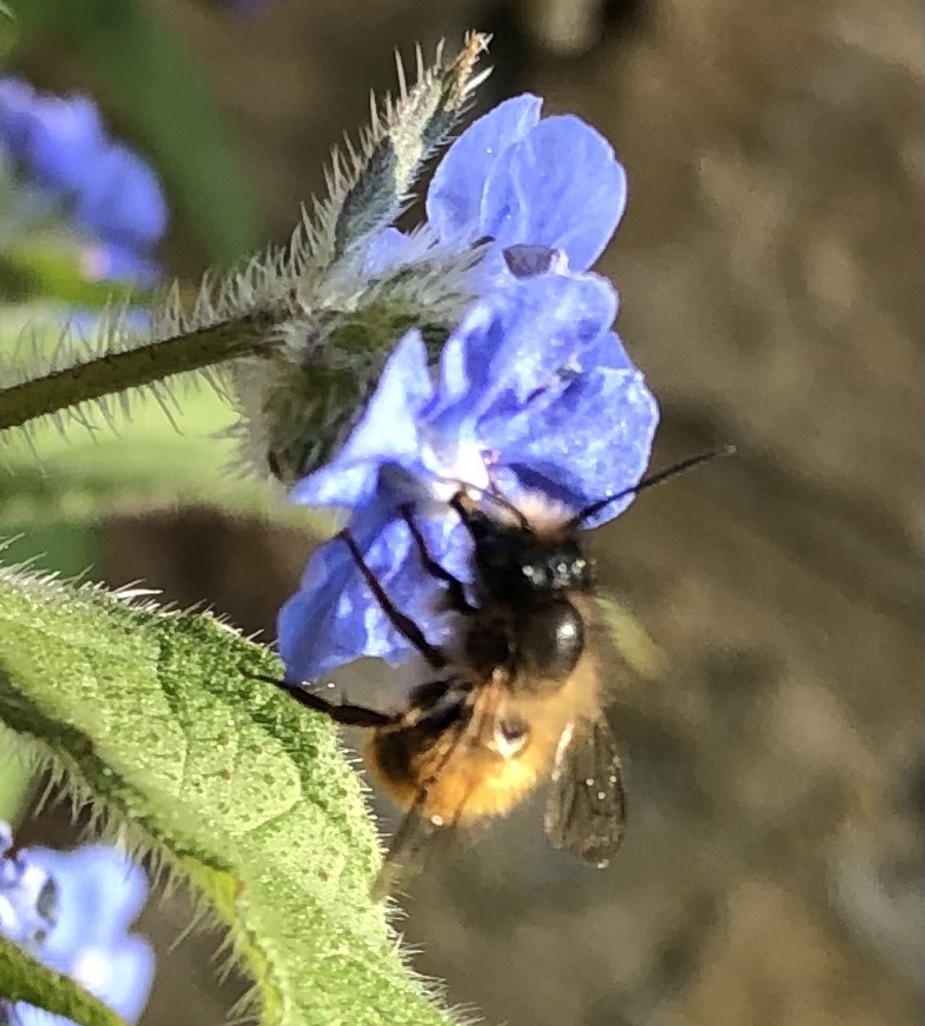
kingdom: Animalia
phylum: Arthropoda
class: Insecta
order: Hymenoptera
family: Megachilidae
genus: Osmia
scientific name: Osmia bicornis
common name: Red mason bee
